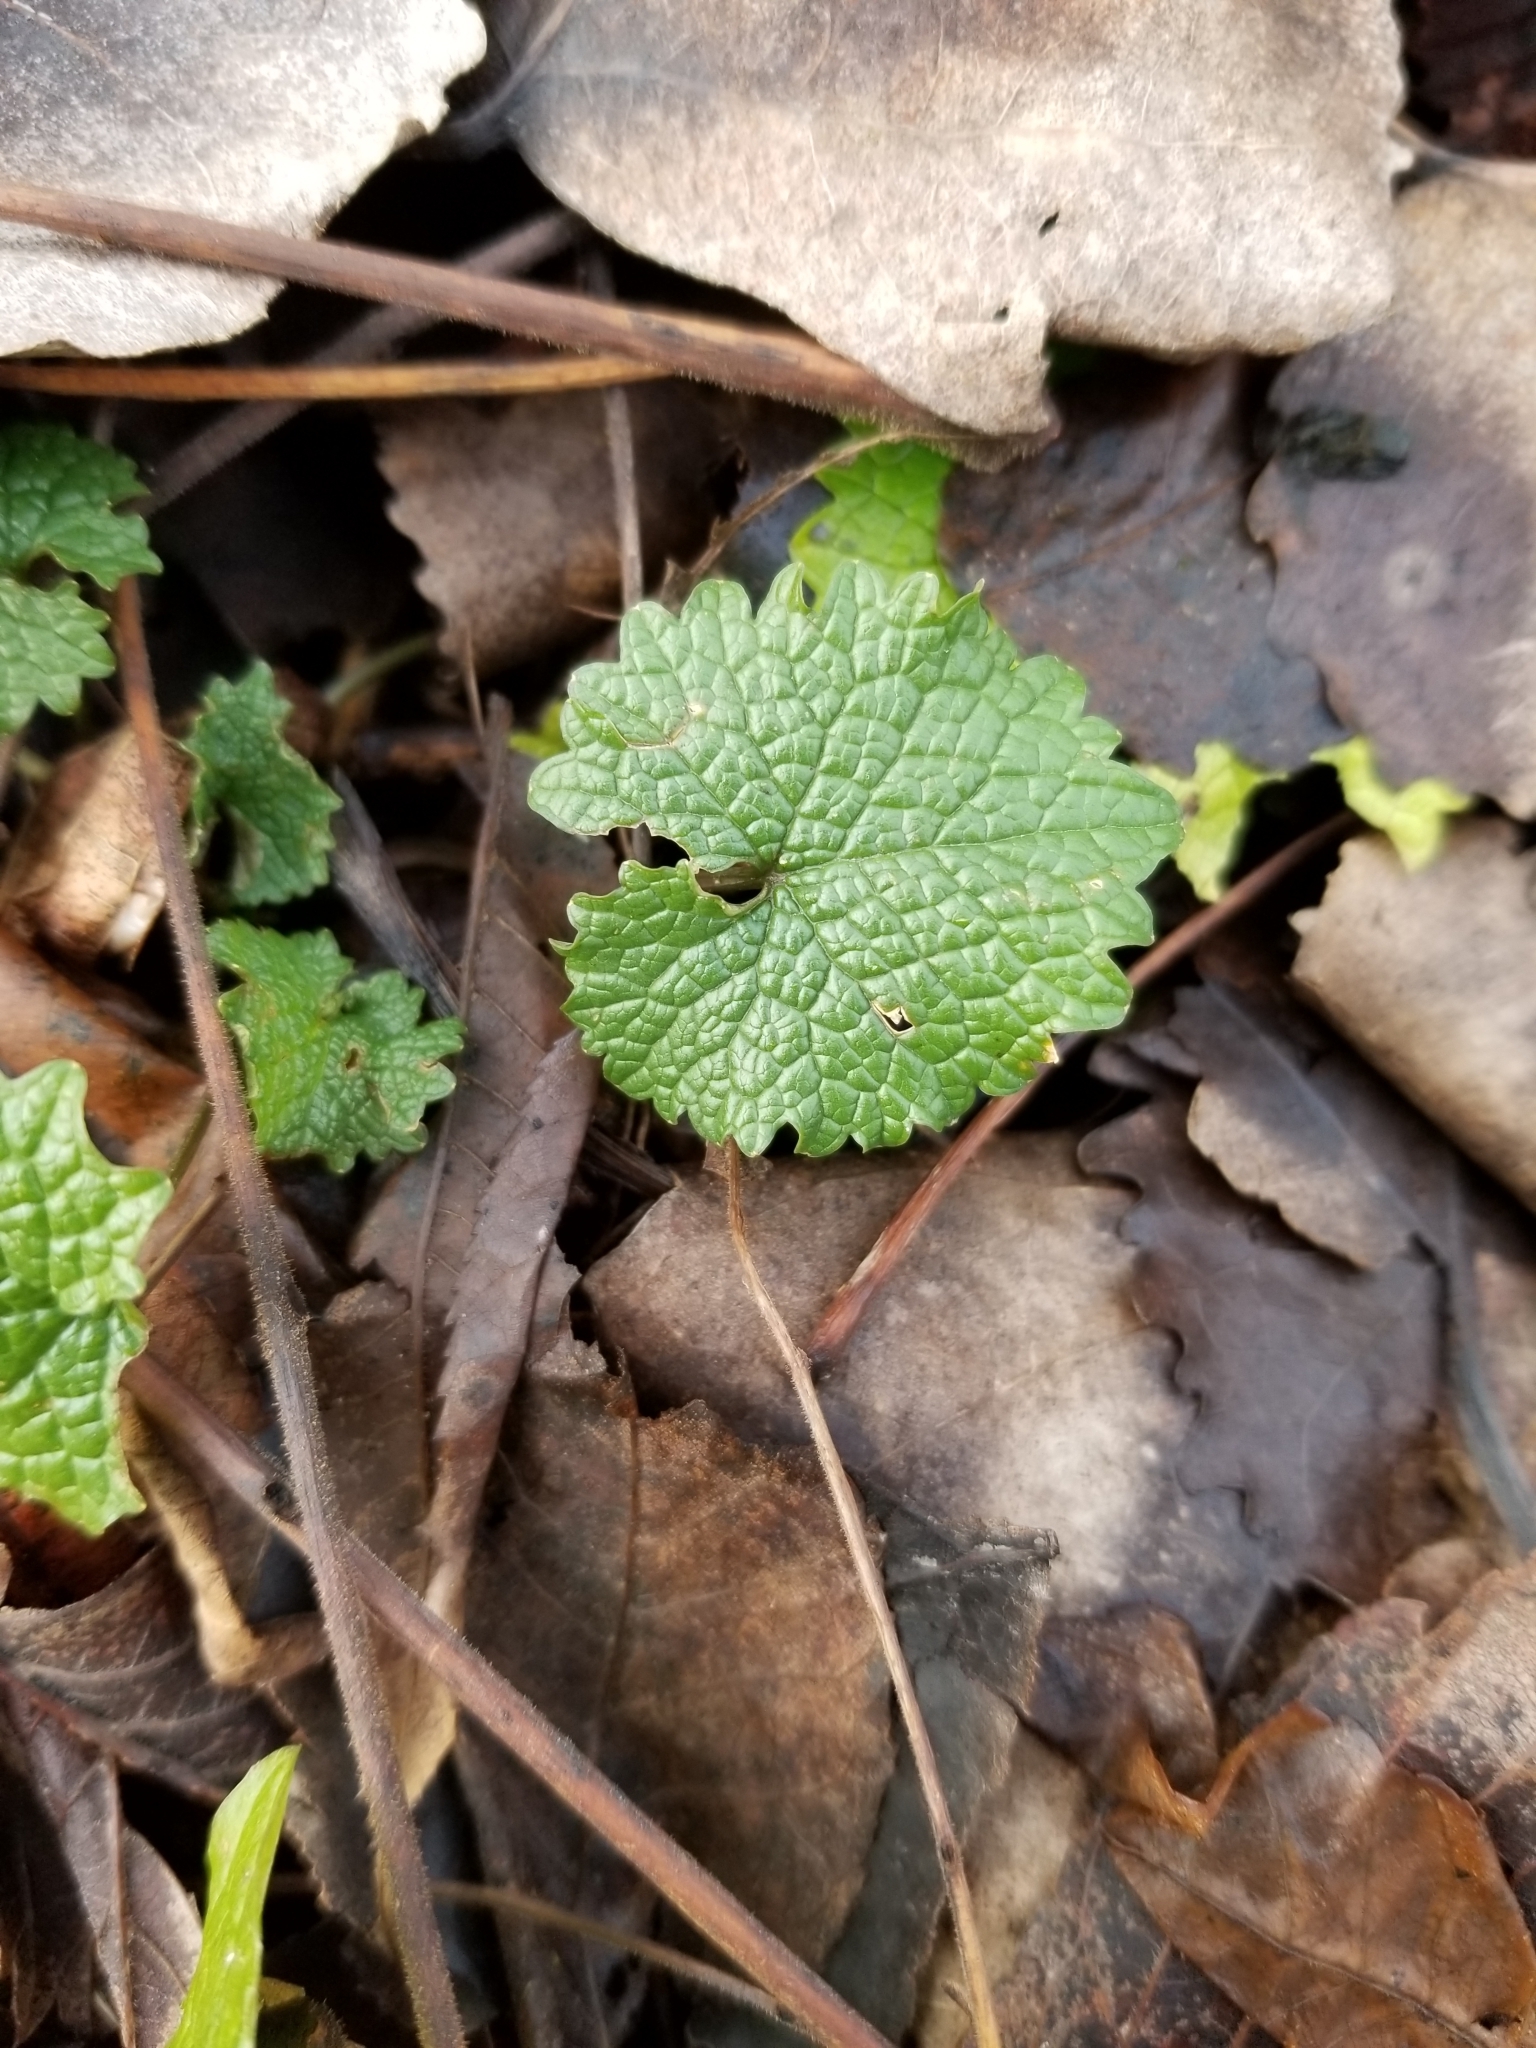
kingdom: Plantae
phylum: Tracheophyta
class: Magnoliopsida
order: Brassicales
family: Brassicaceae
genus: Alliaria
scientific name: Alliaria petiolata
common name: Garlic mustard
